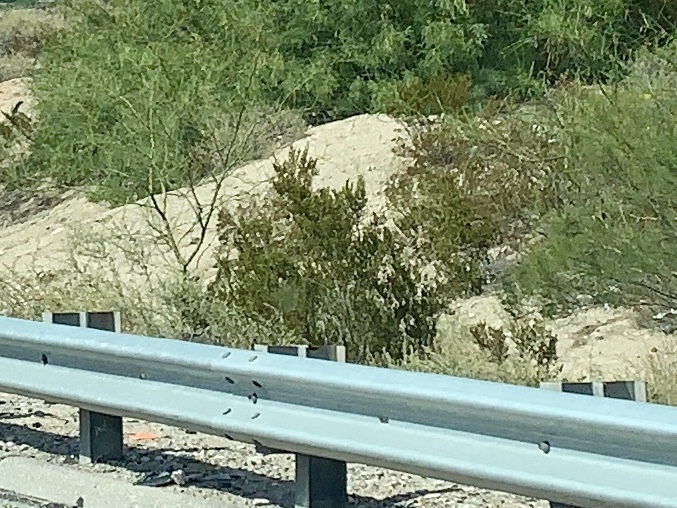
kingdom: Plantae
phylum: Tracheophyta
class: Magnoliopsida
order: Zygophyllales
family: Zygophyllaceae
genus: Larrea
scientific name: Larrea tridentata
